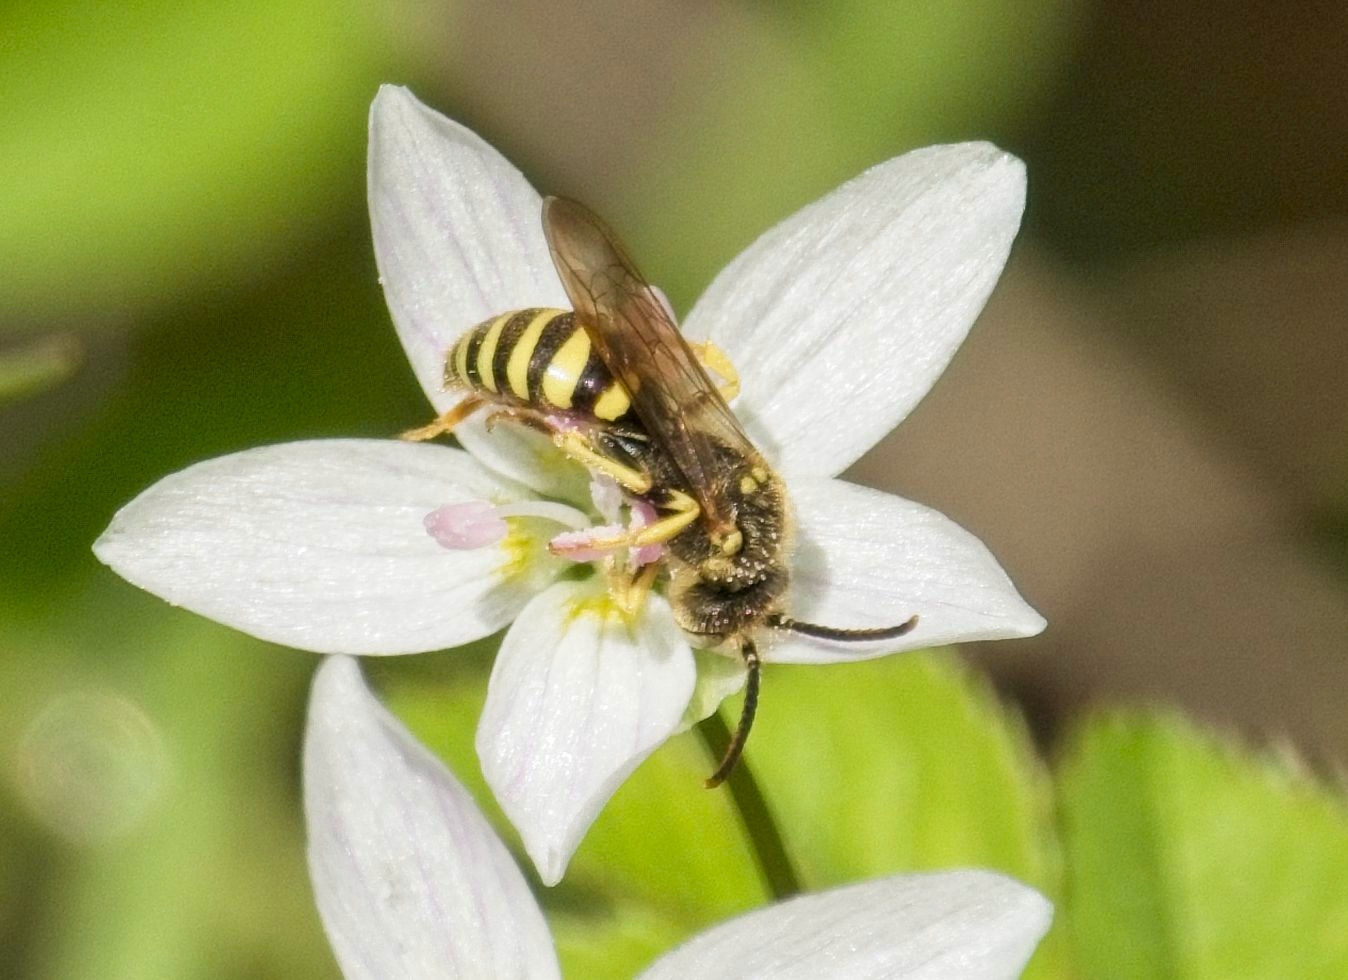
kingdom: Animalia
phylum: Arthropoda
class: Insecta
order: Hymenoptera
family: Apidae
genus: Nomada
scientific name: Nomada
